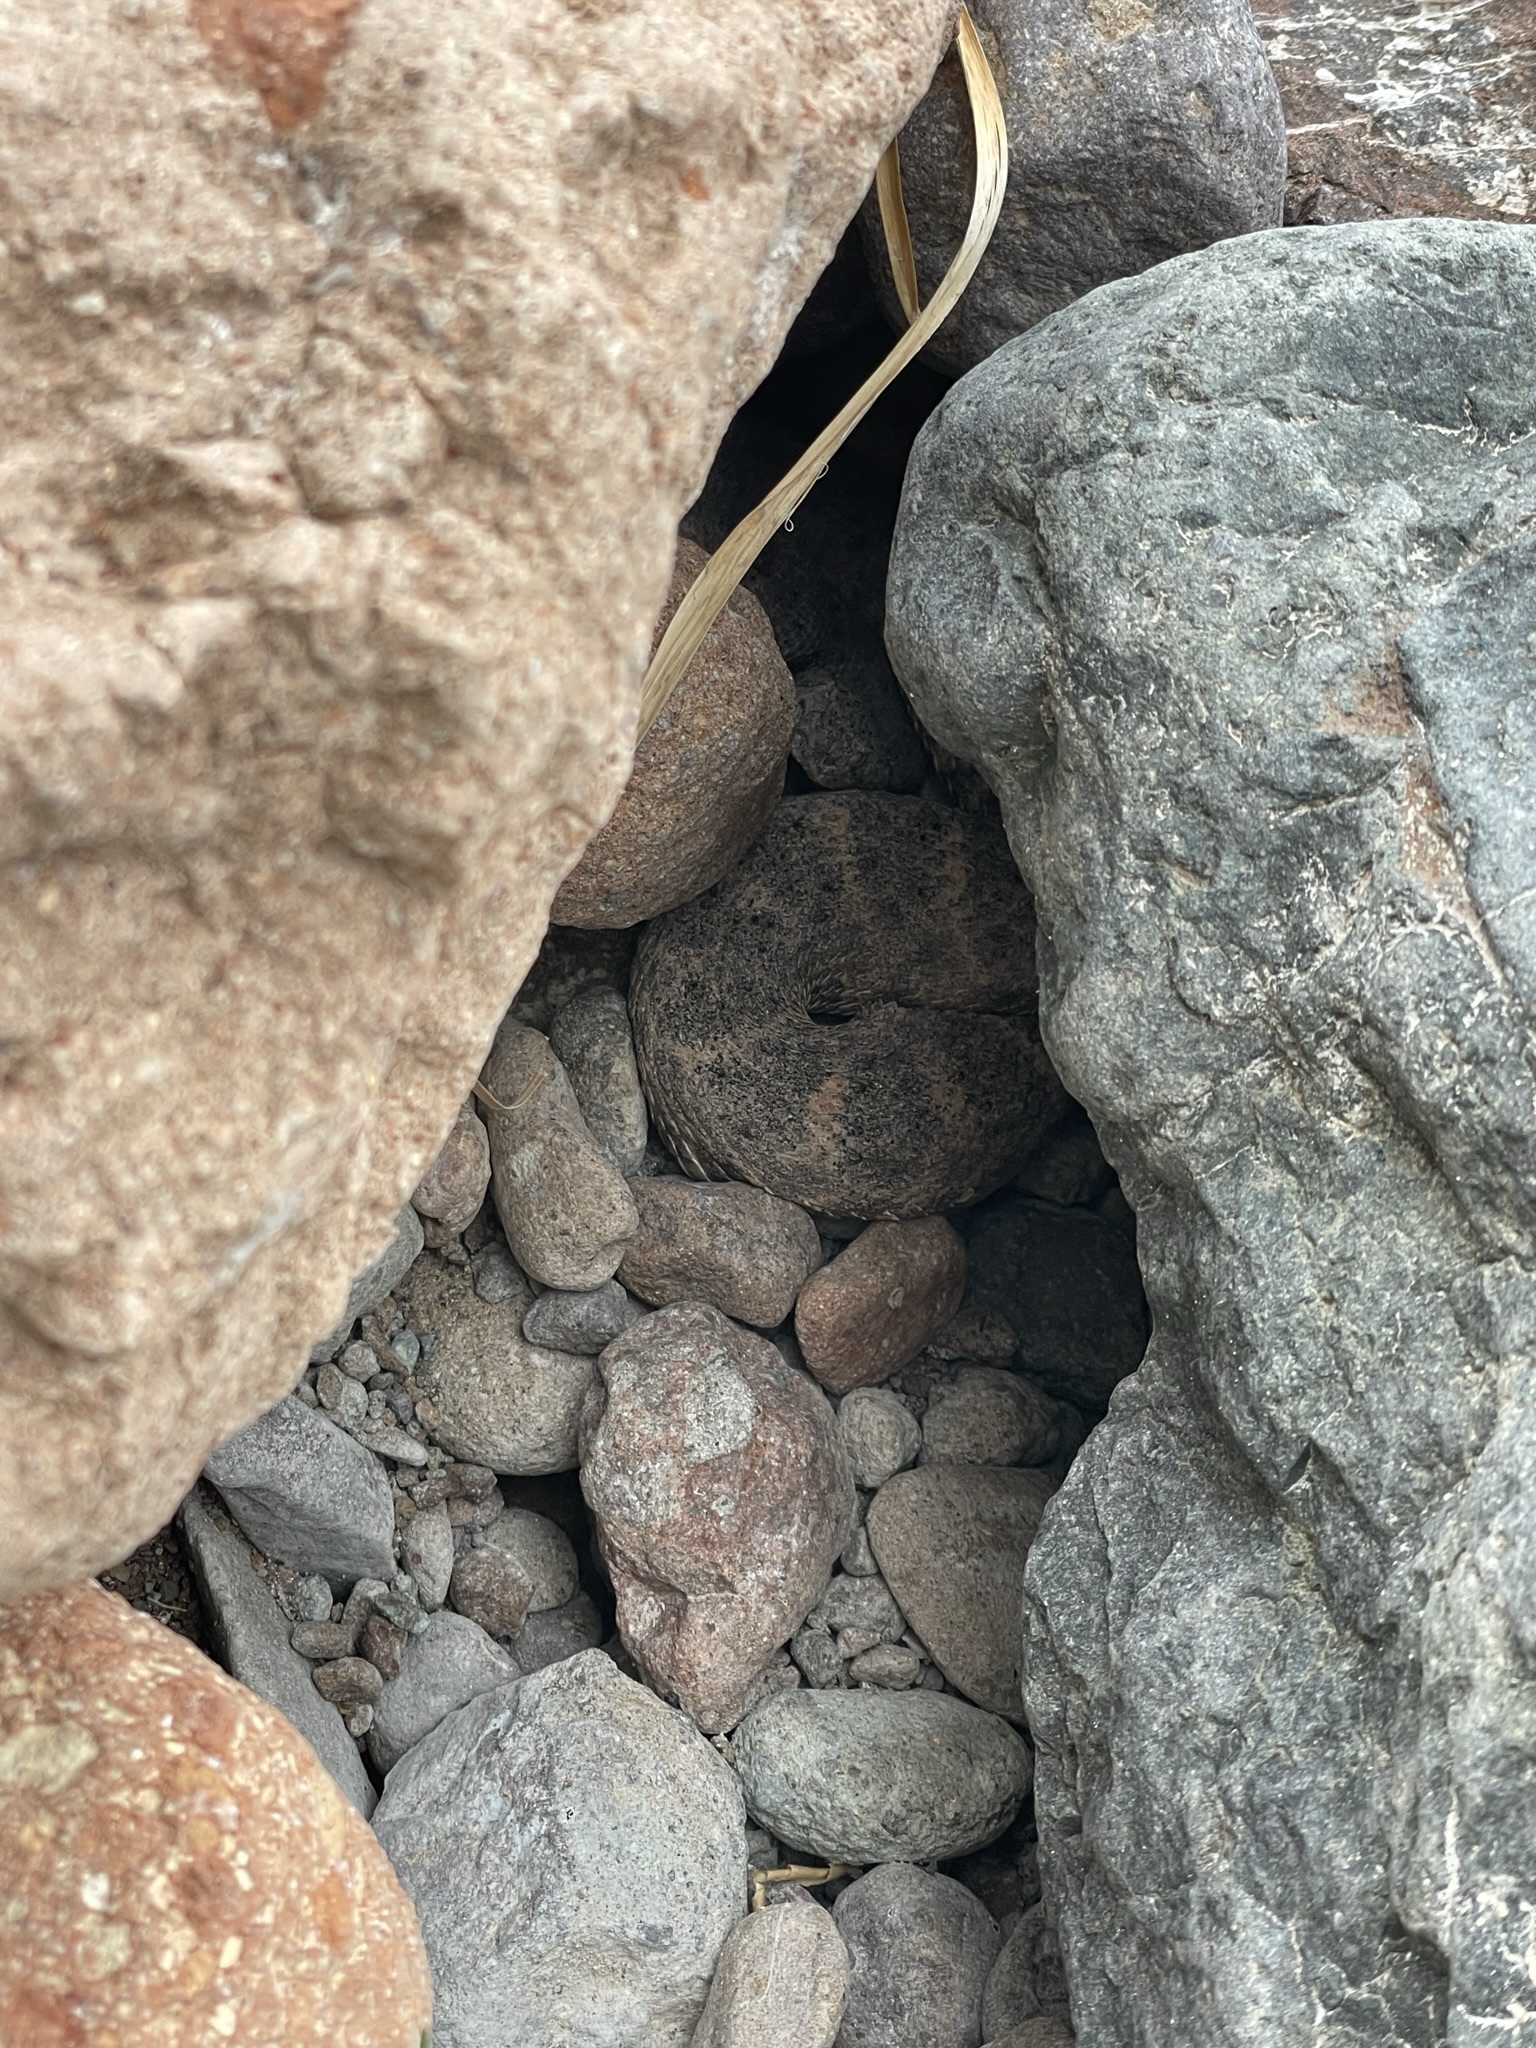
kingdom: Animalia
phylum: Chordata
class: Squamata
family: Viperidae
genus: Crotalus
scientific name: Crotalus mitchellii
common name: Speckled rattlesnake
